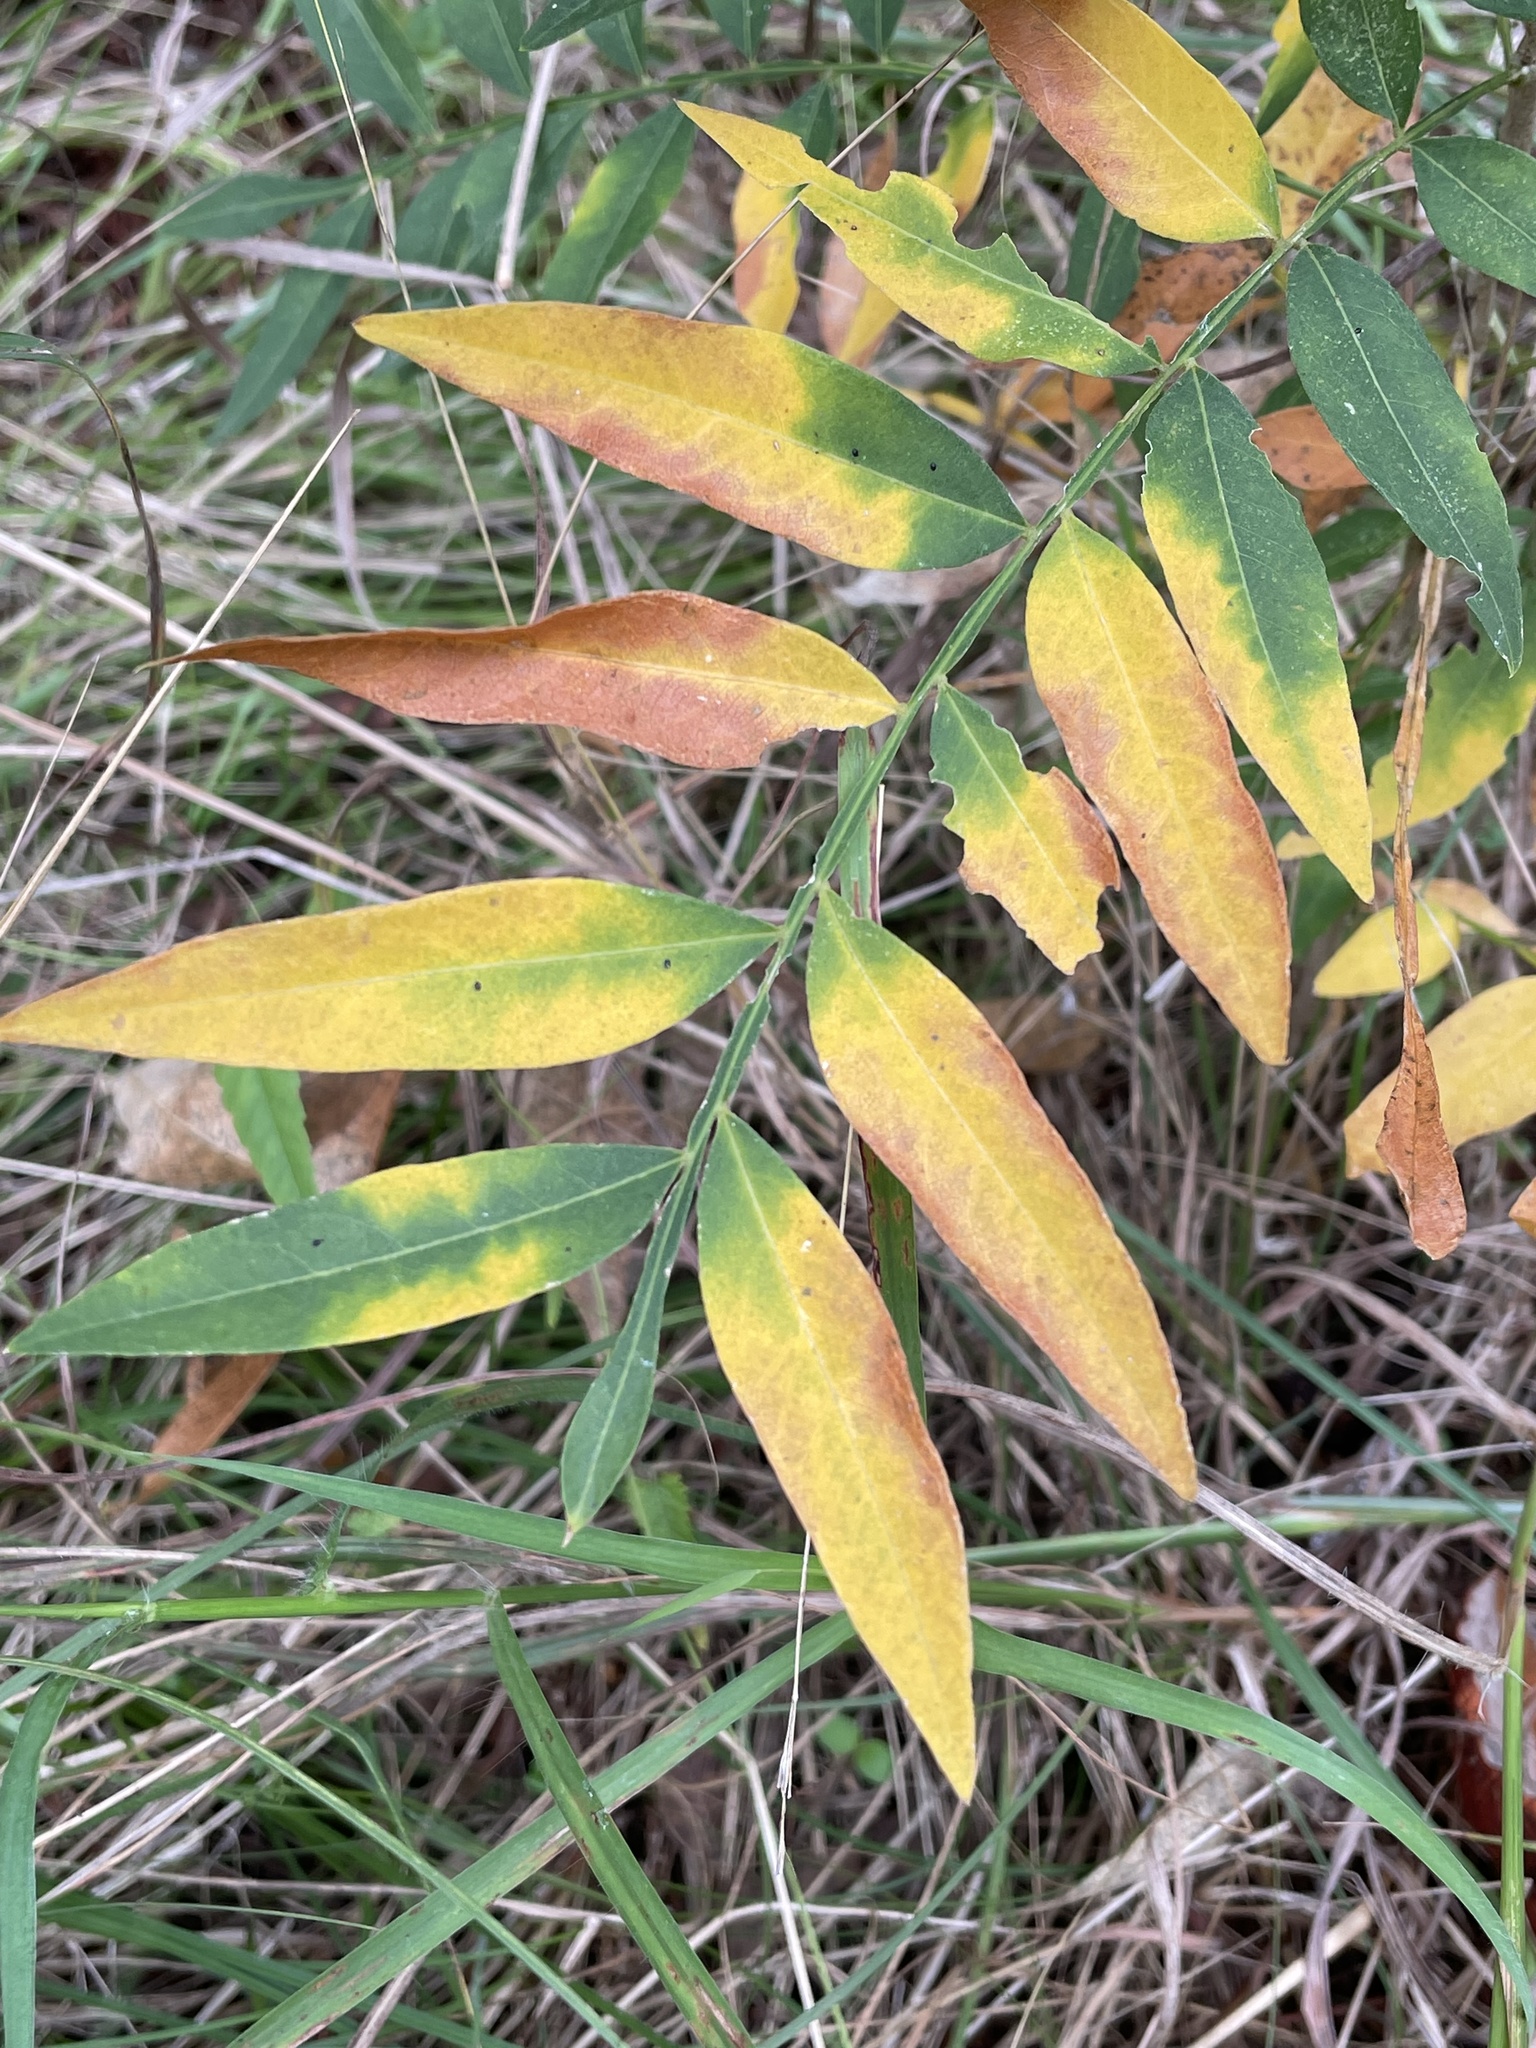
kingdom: Plantae
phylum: Tracheophyta
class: Magnoliopsida
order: Sapindales
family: Sapindaceae
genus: Sapindus
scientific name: Sapindus drummondii
